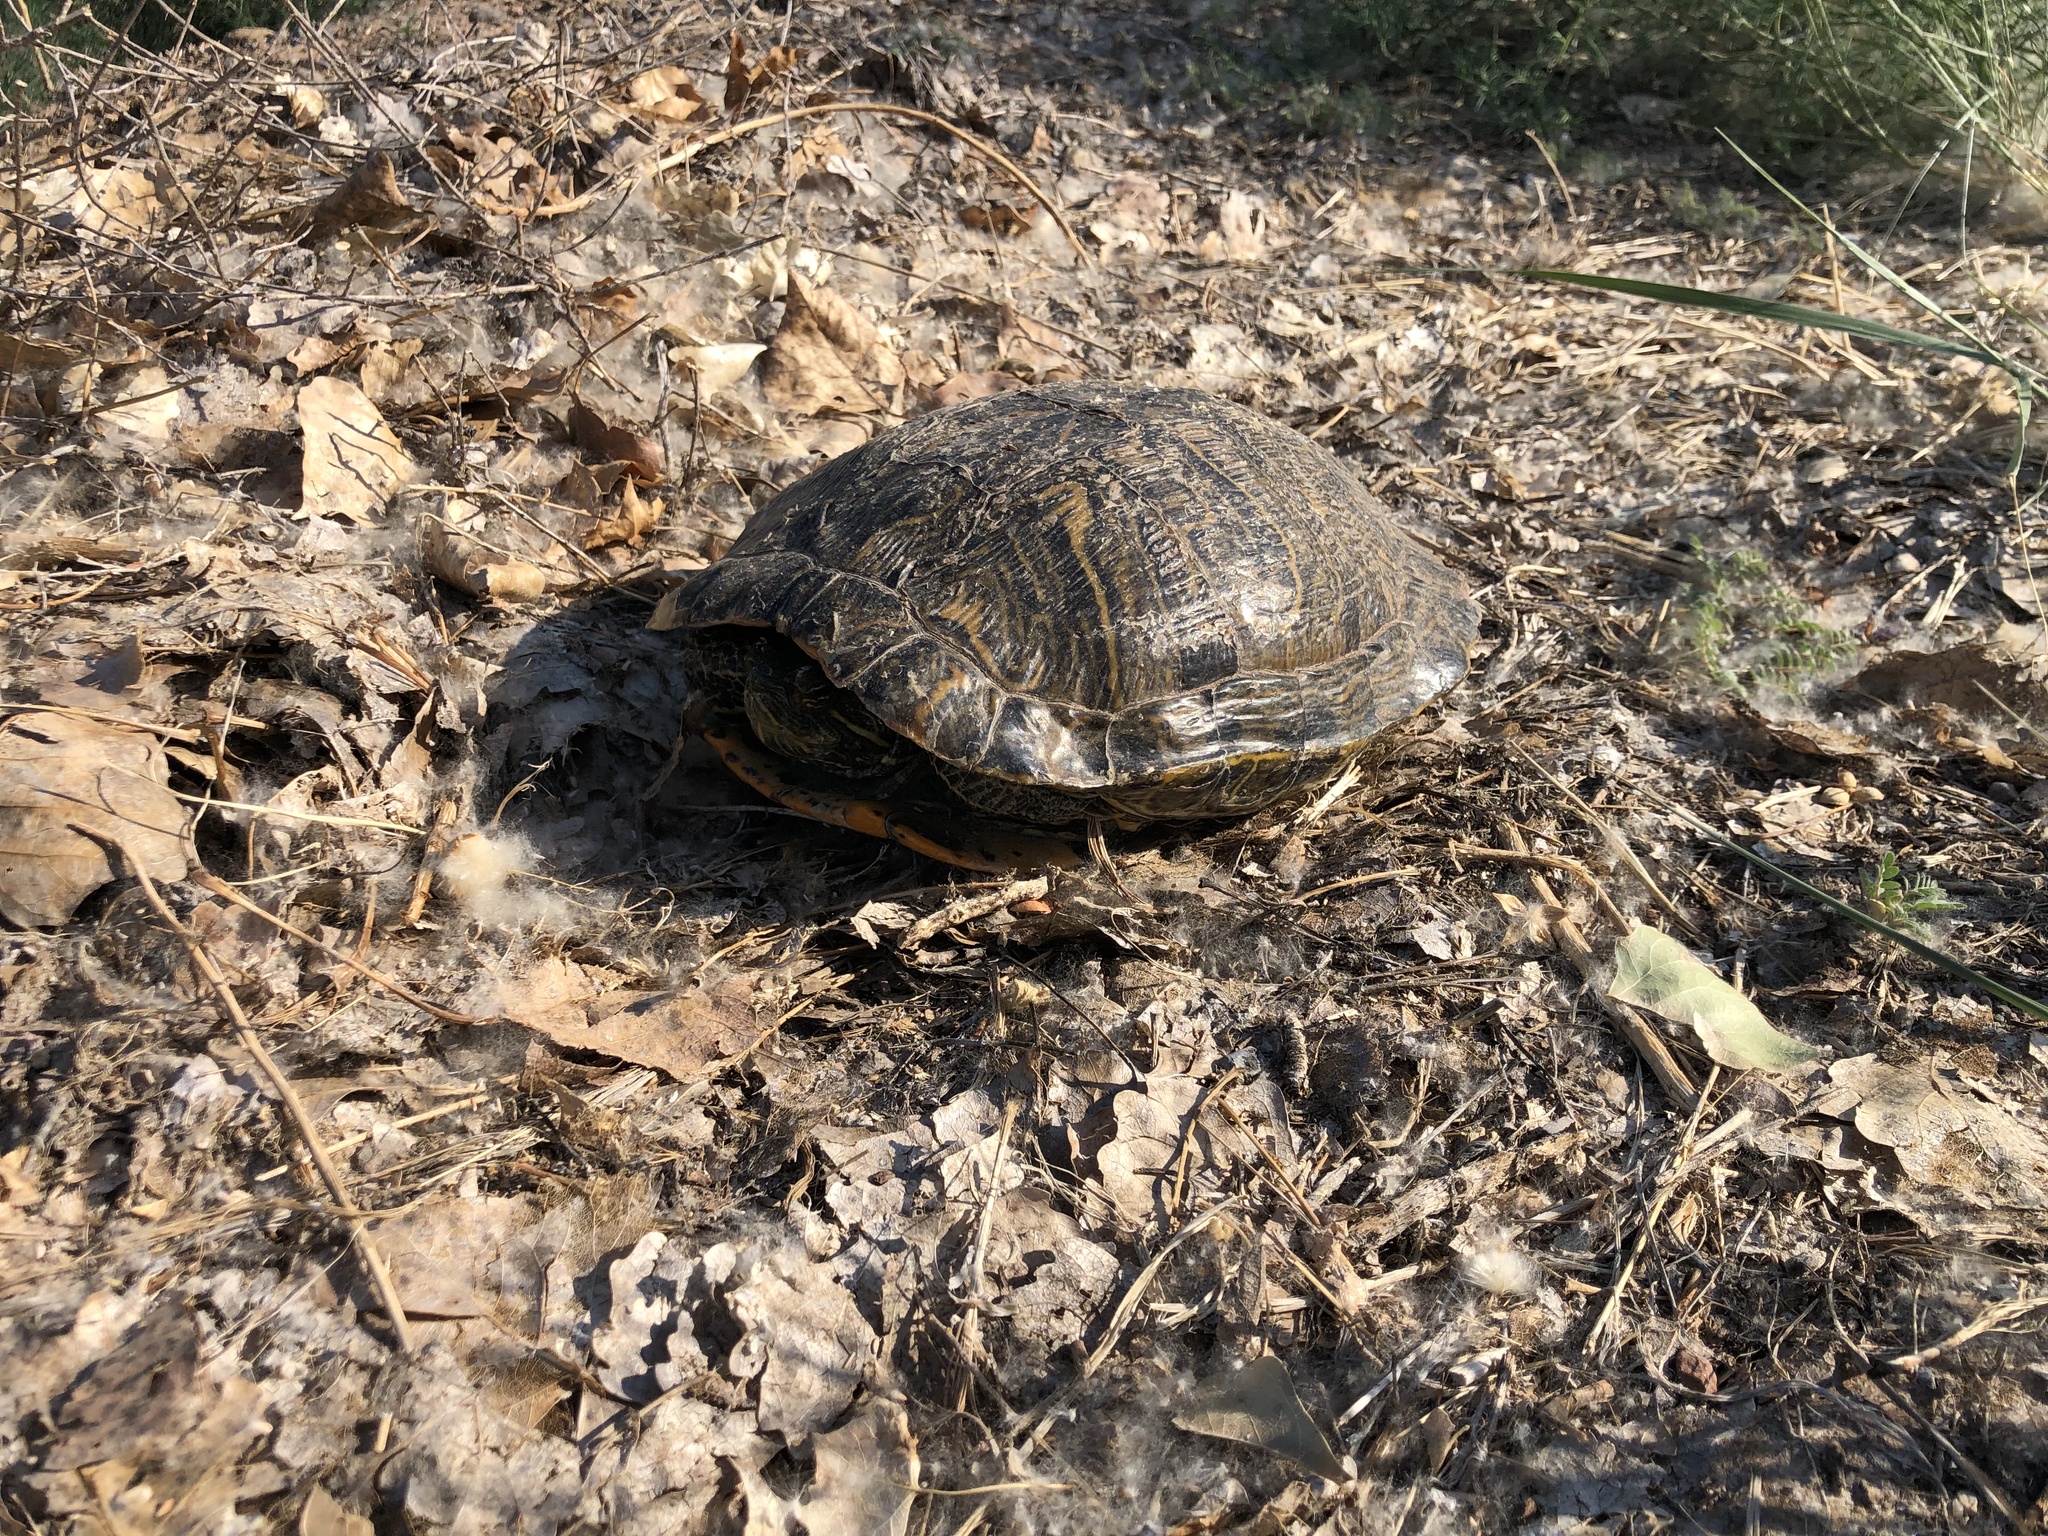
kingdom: Animalia
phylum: Chordata
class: Testudines
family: Emydidae
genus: Trachemys
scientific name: Trachemys scripta
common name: Slider
